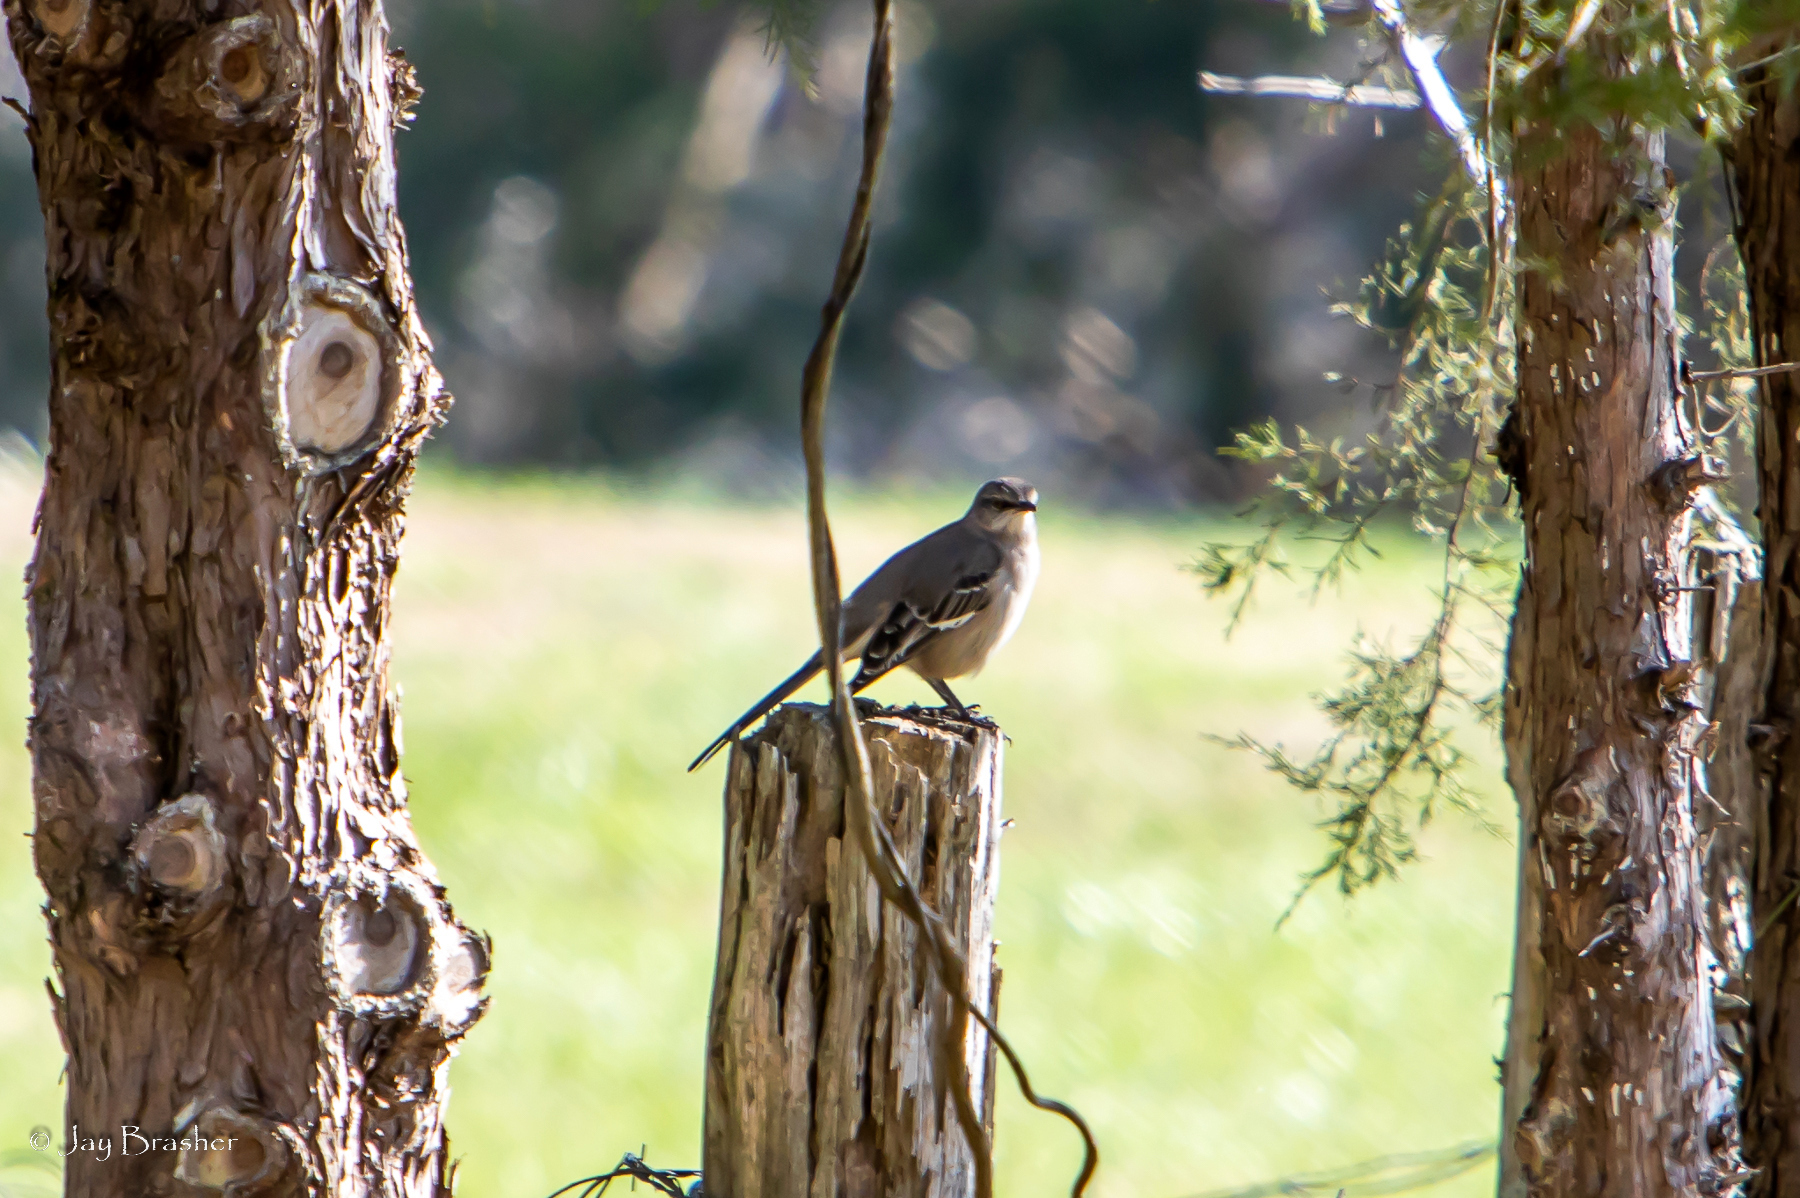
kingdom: Animalia
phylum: Chordata
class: Aves
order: Passeriformes
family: Mimidae
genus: Mimus
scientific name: Mimus polyglottos
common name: Northern mockingbird
